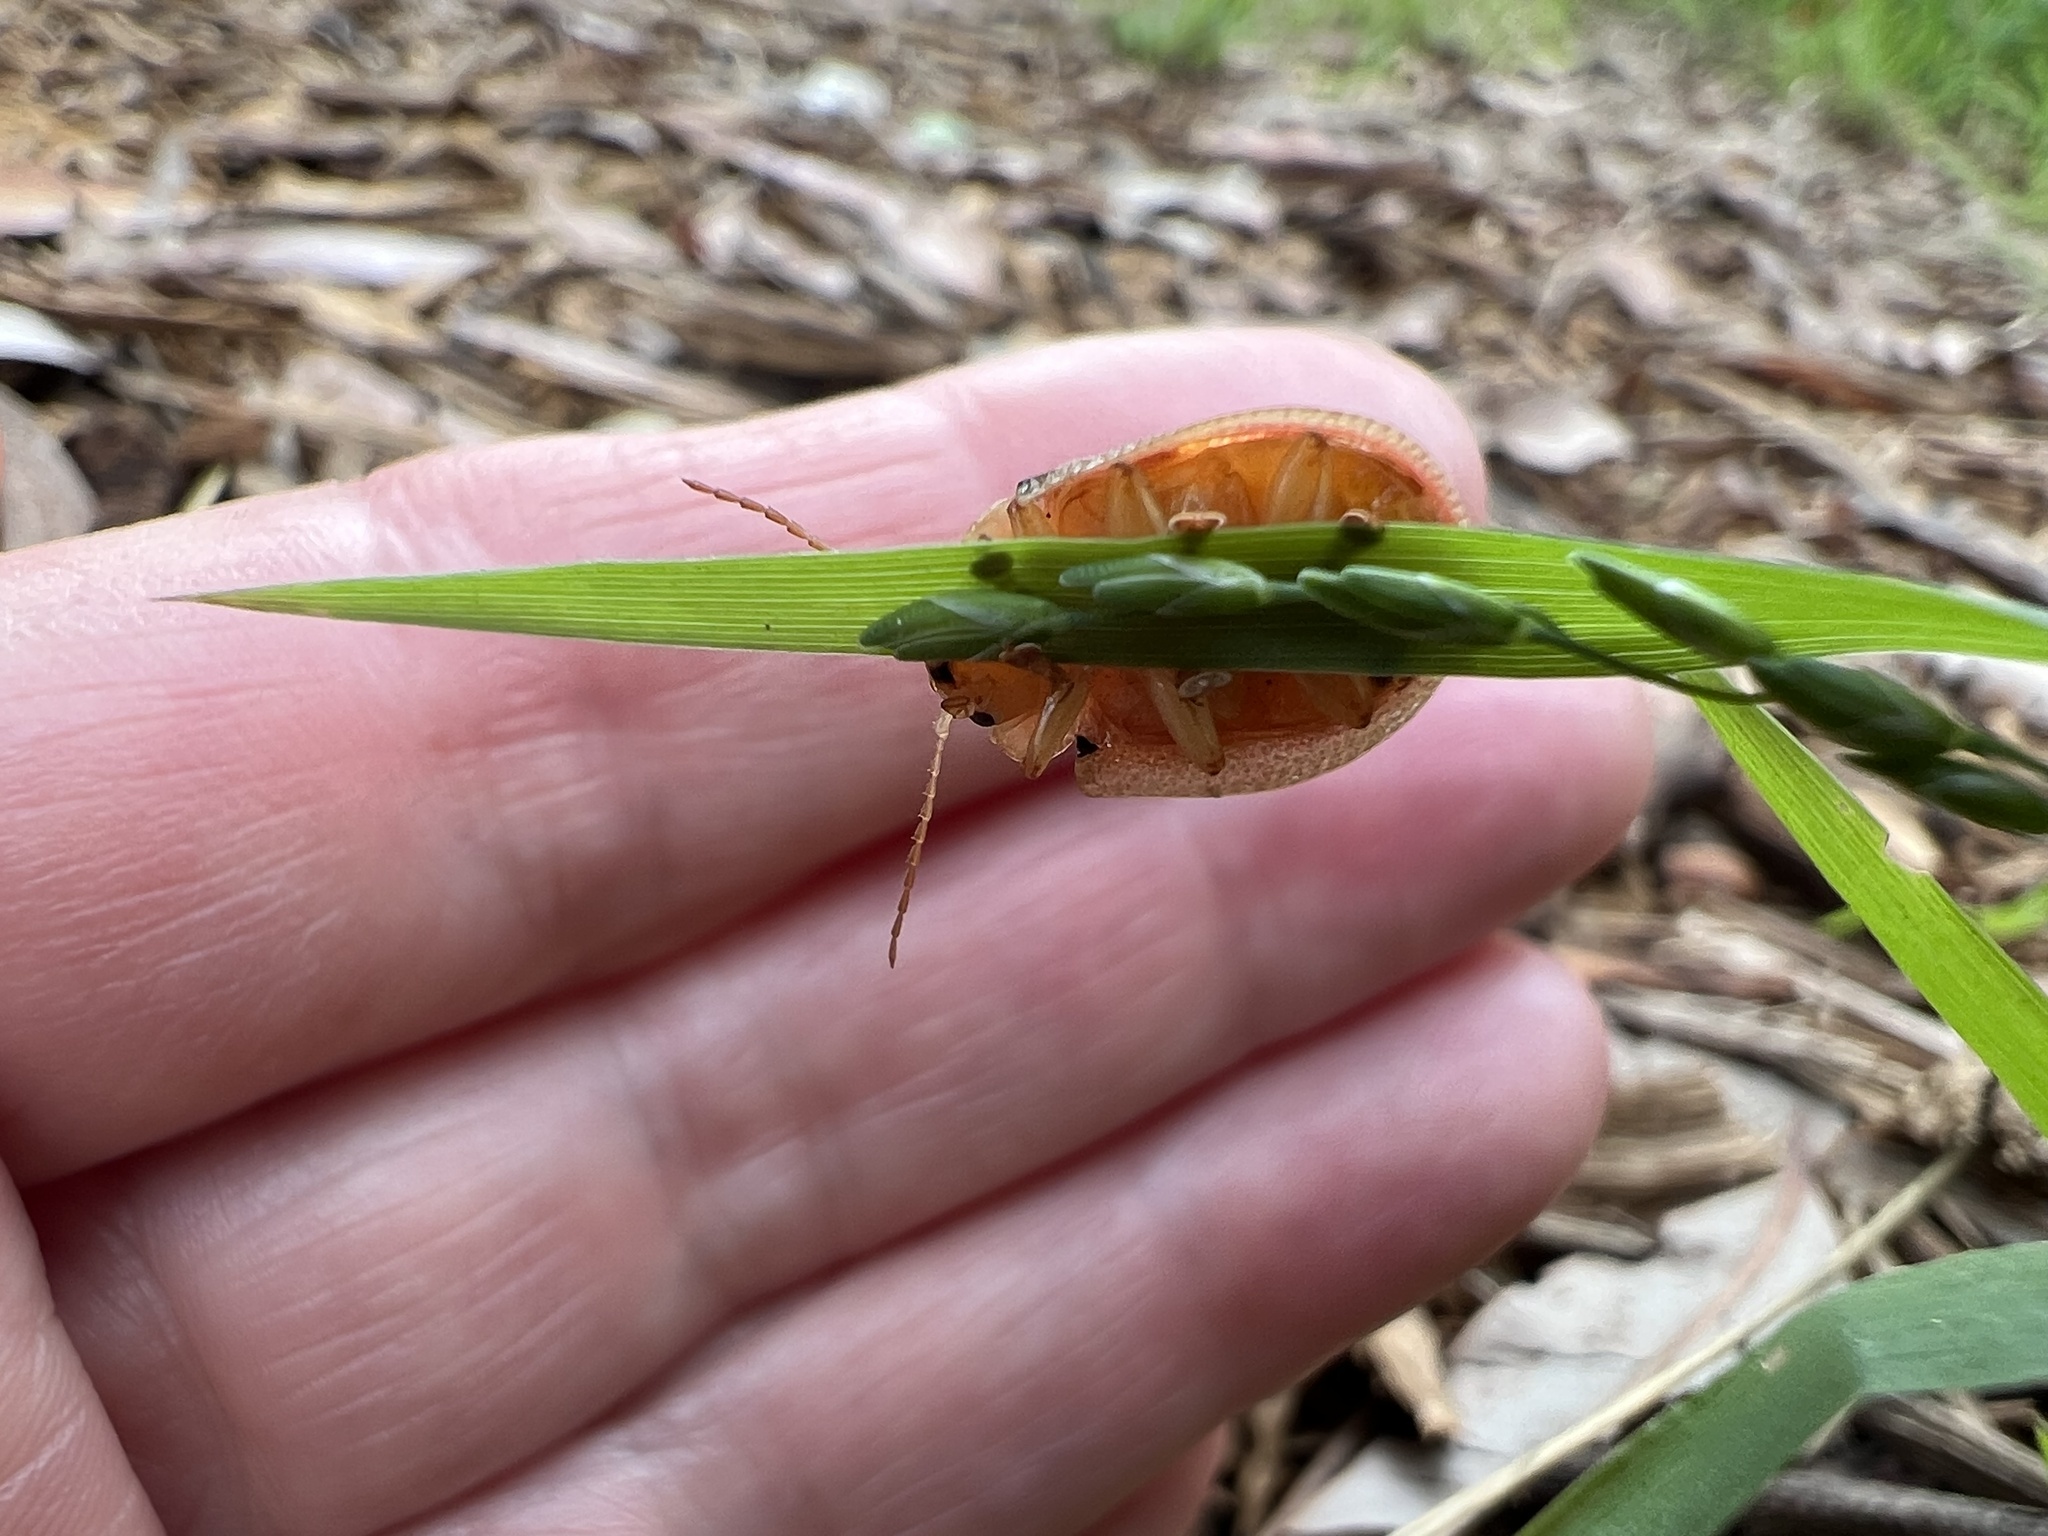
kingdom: Animalia
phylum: Arthropoda
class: Insecta
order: Coleoptera
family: Chrysomelidae
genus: Paropsis
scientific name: Paropsis
